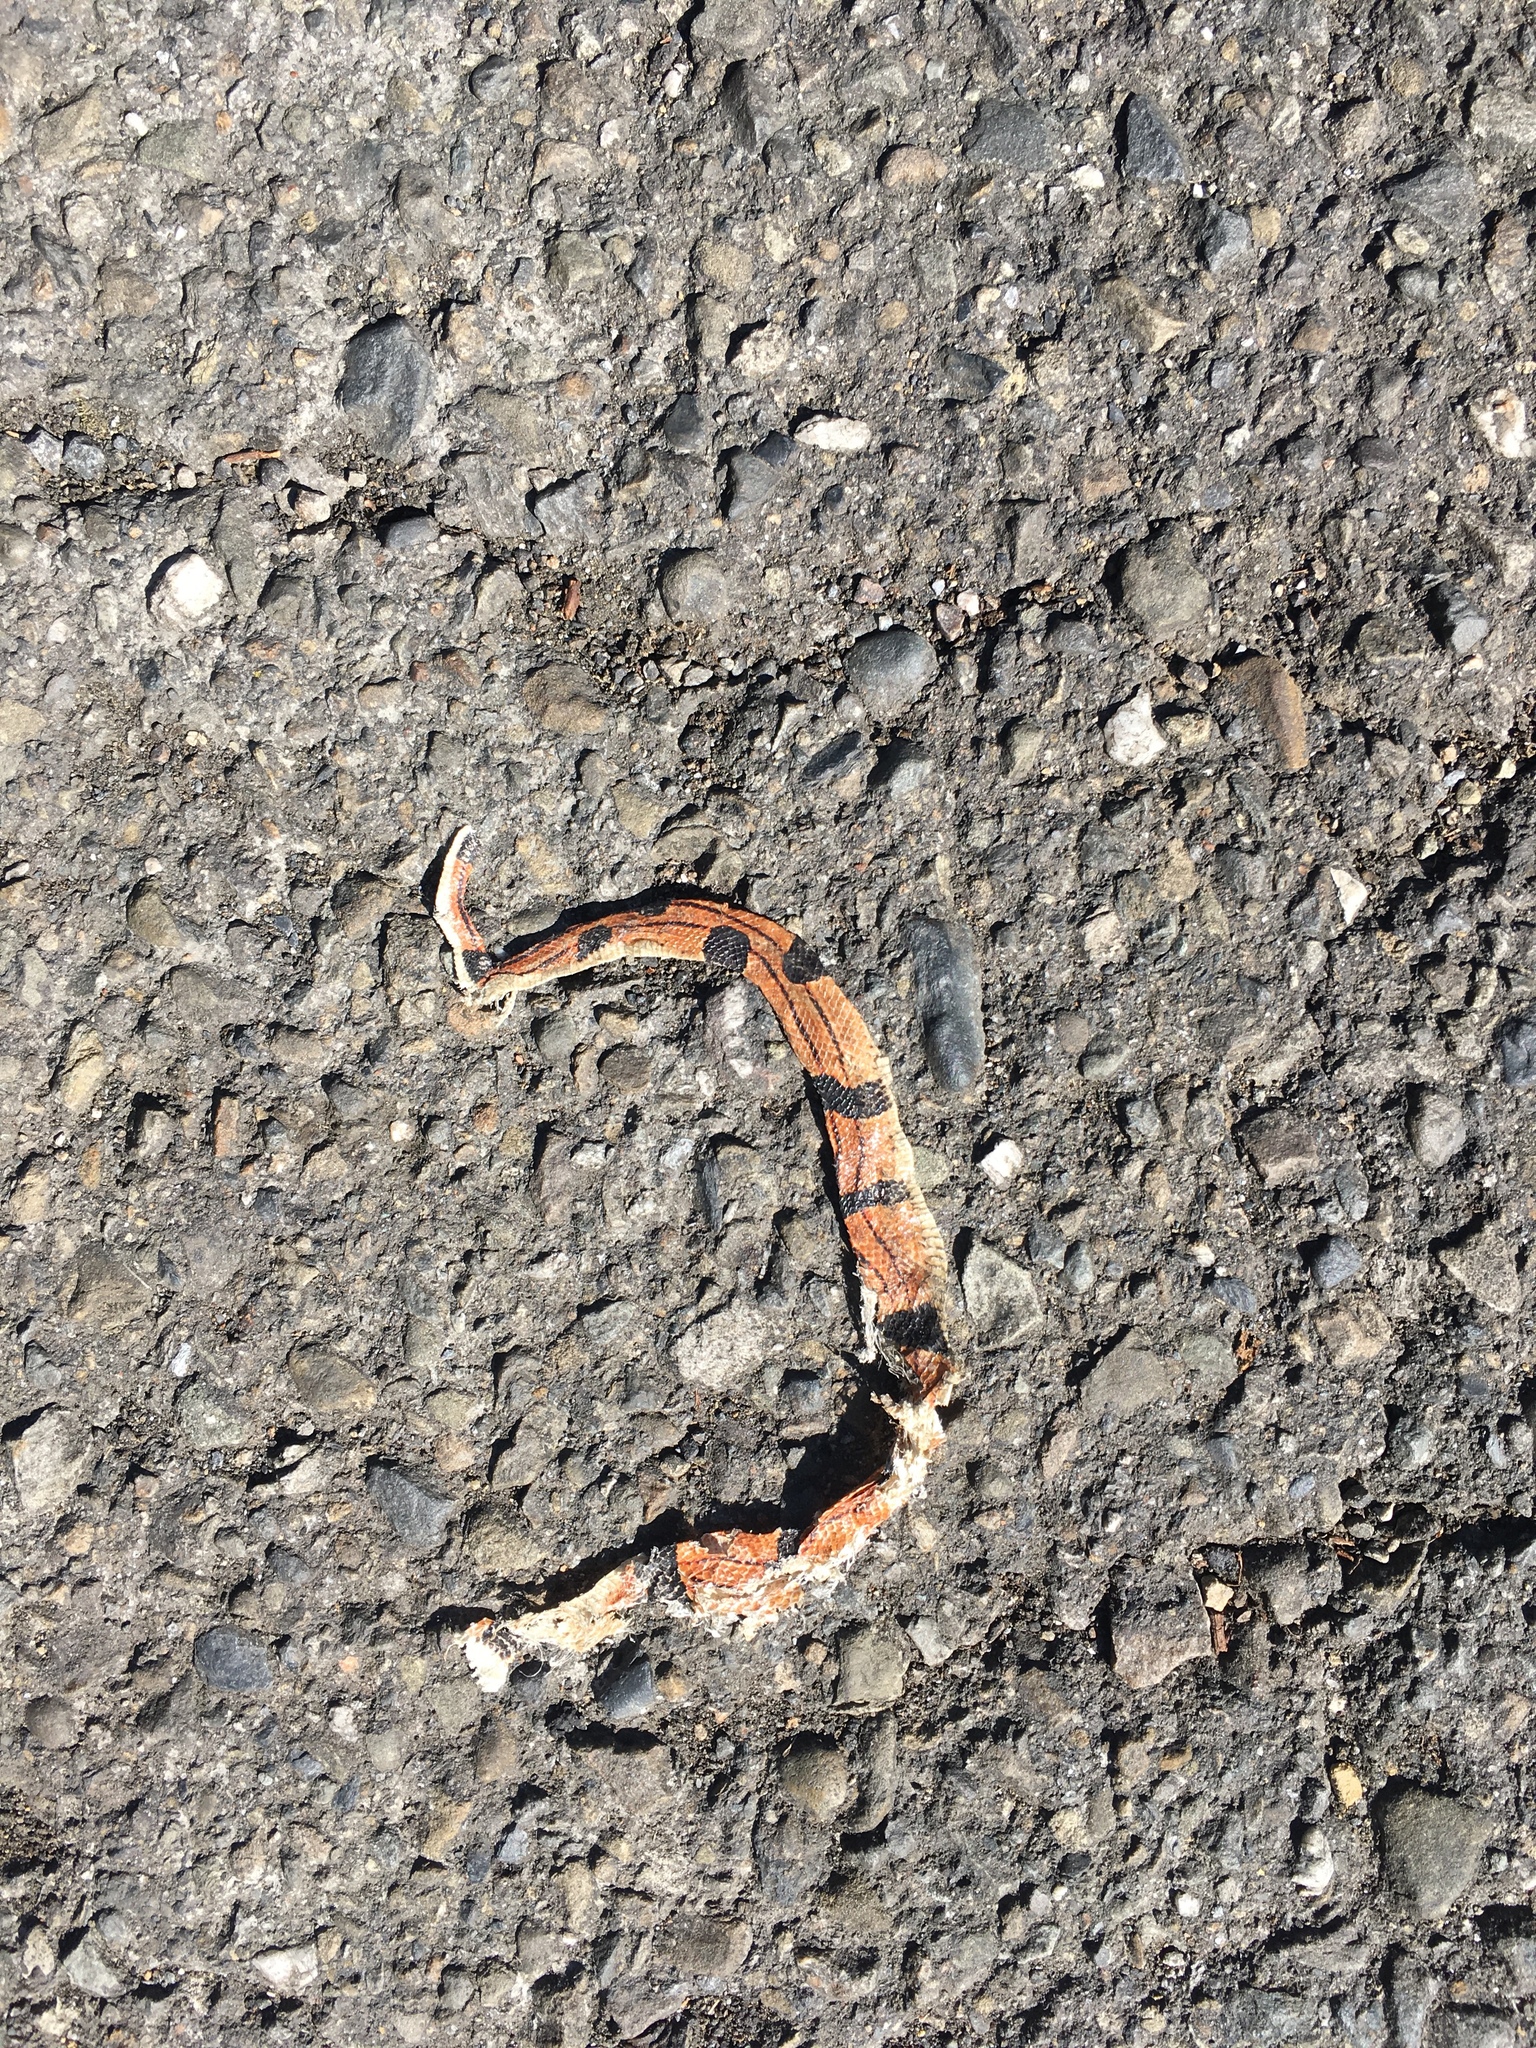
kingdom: Animalia
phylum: Chordata
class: Squamata
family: Colubridae
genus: Oreocryptophis
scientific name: Oreocryptophis porphyraceus
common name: Black-banded trinket snake
